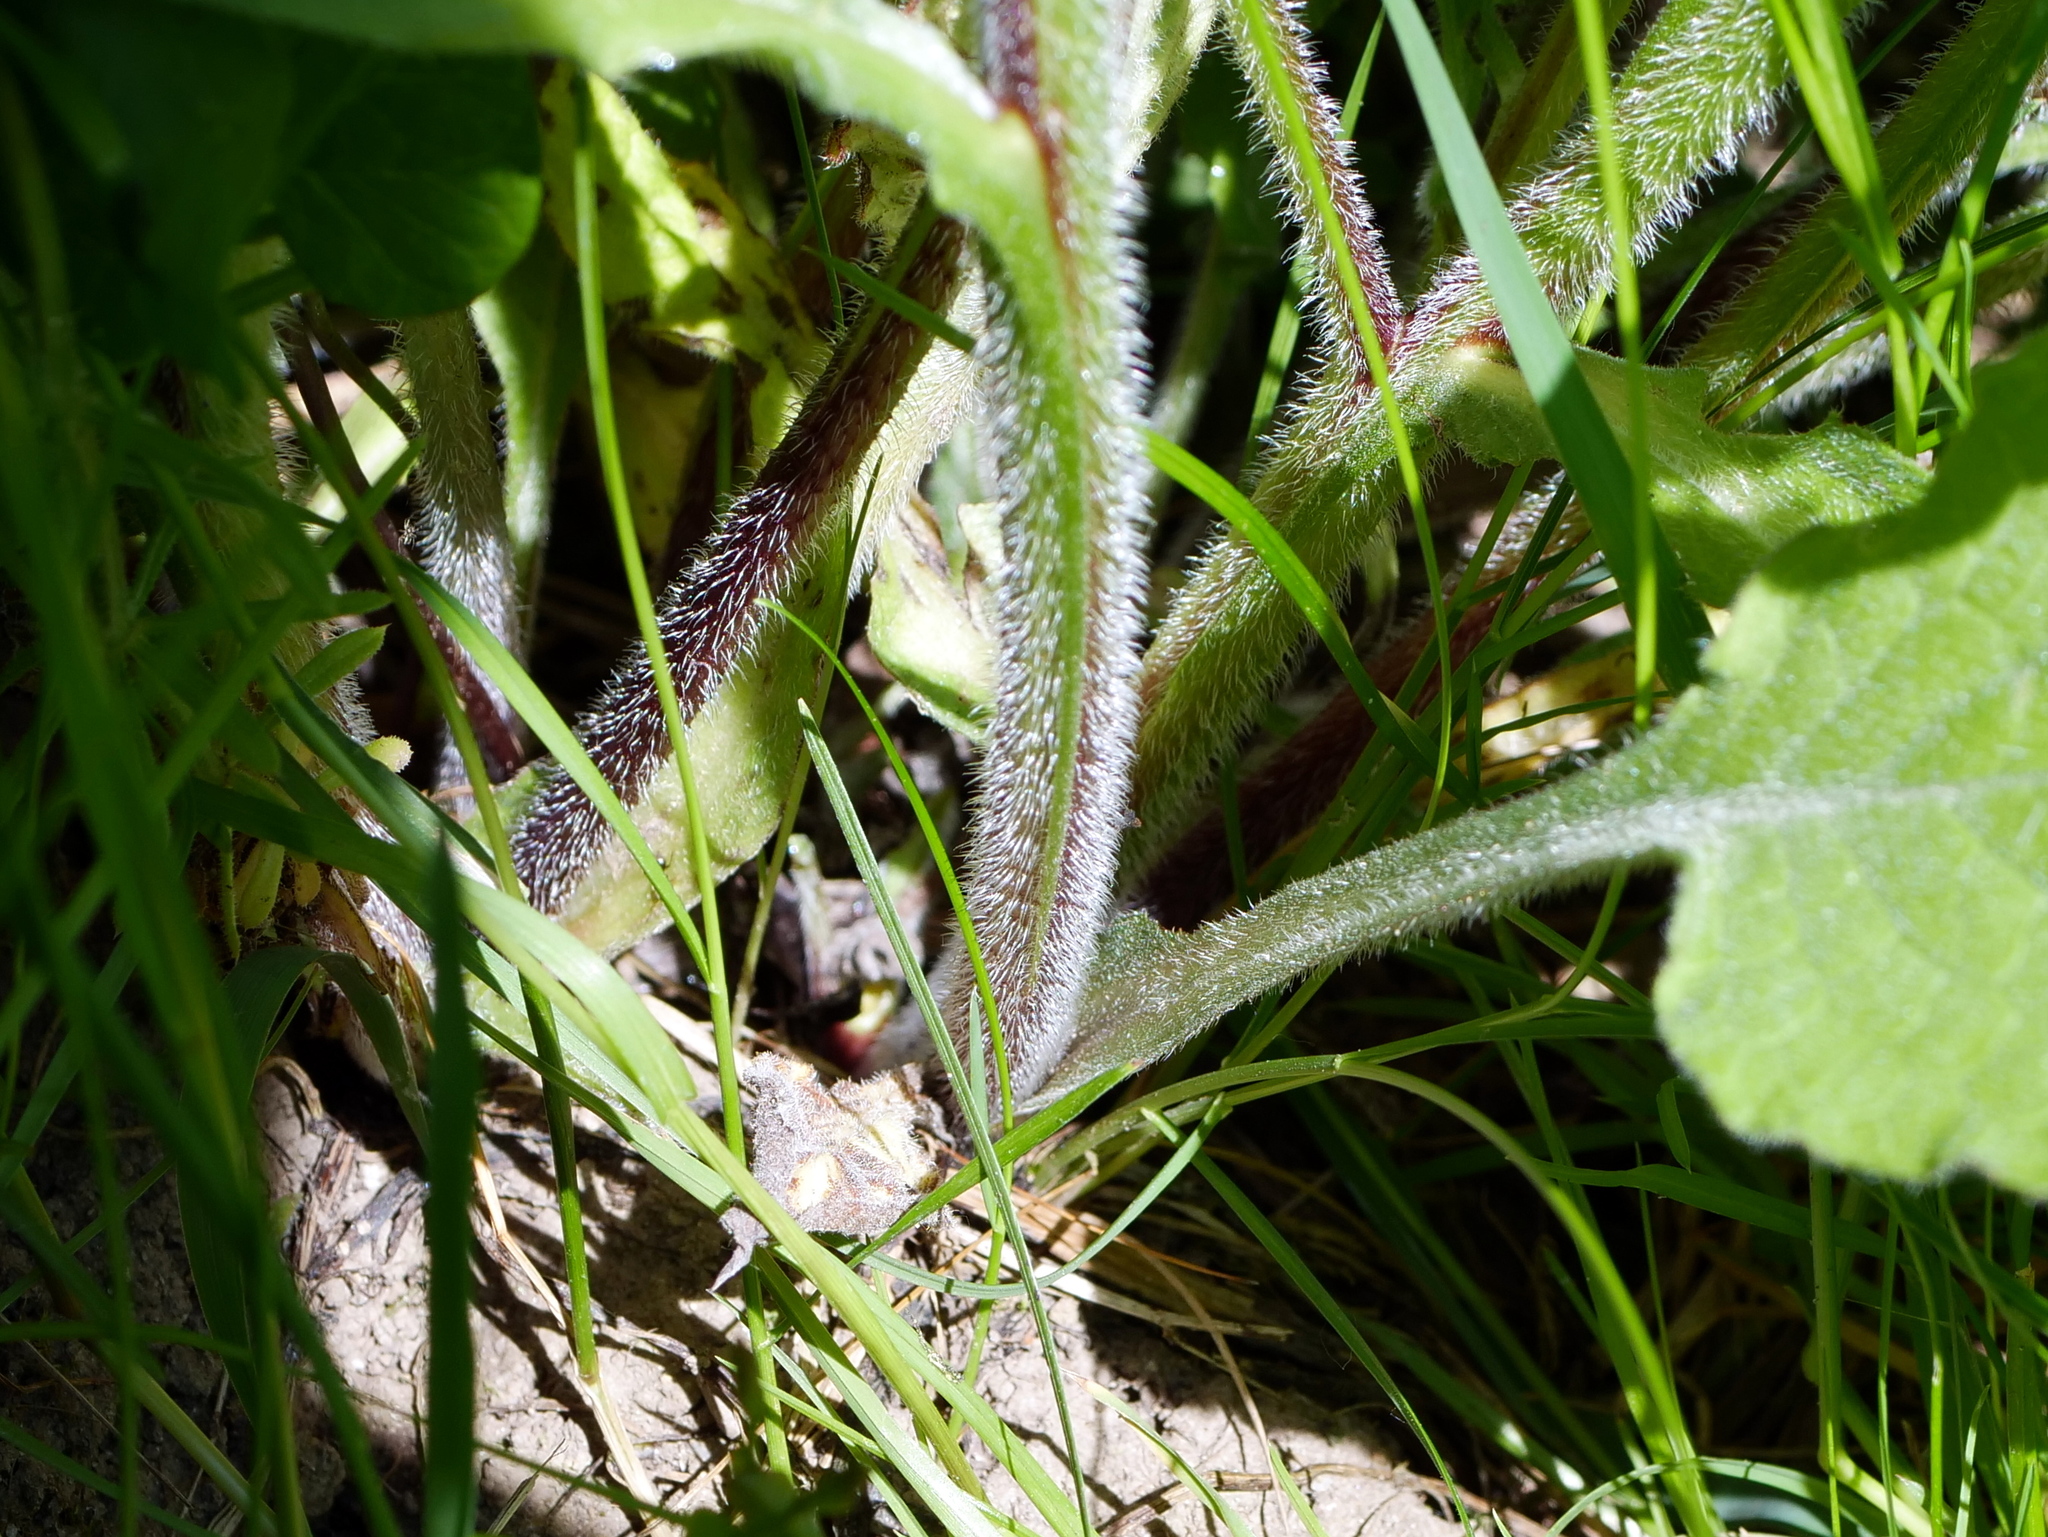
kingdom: Plantae
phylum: Tracheophyta
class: Magnoliopsida
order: Boraginales
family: Boraginaceae
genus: Symphytum
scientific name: Symphytum bohemicum
